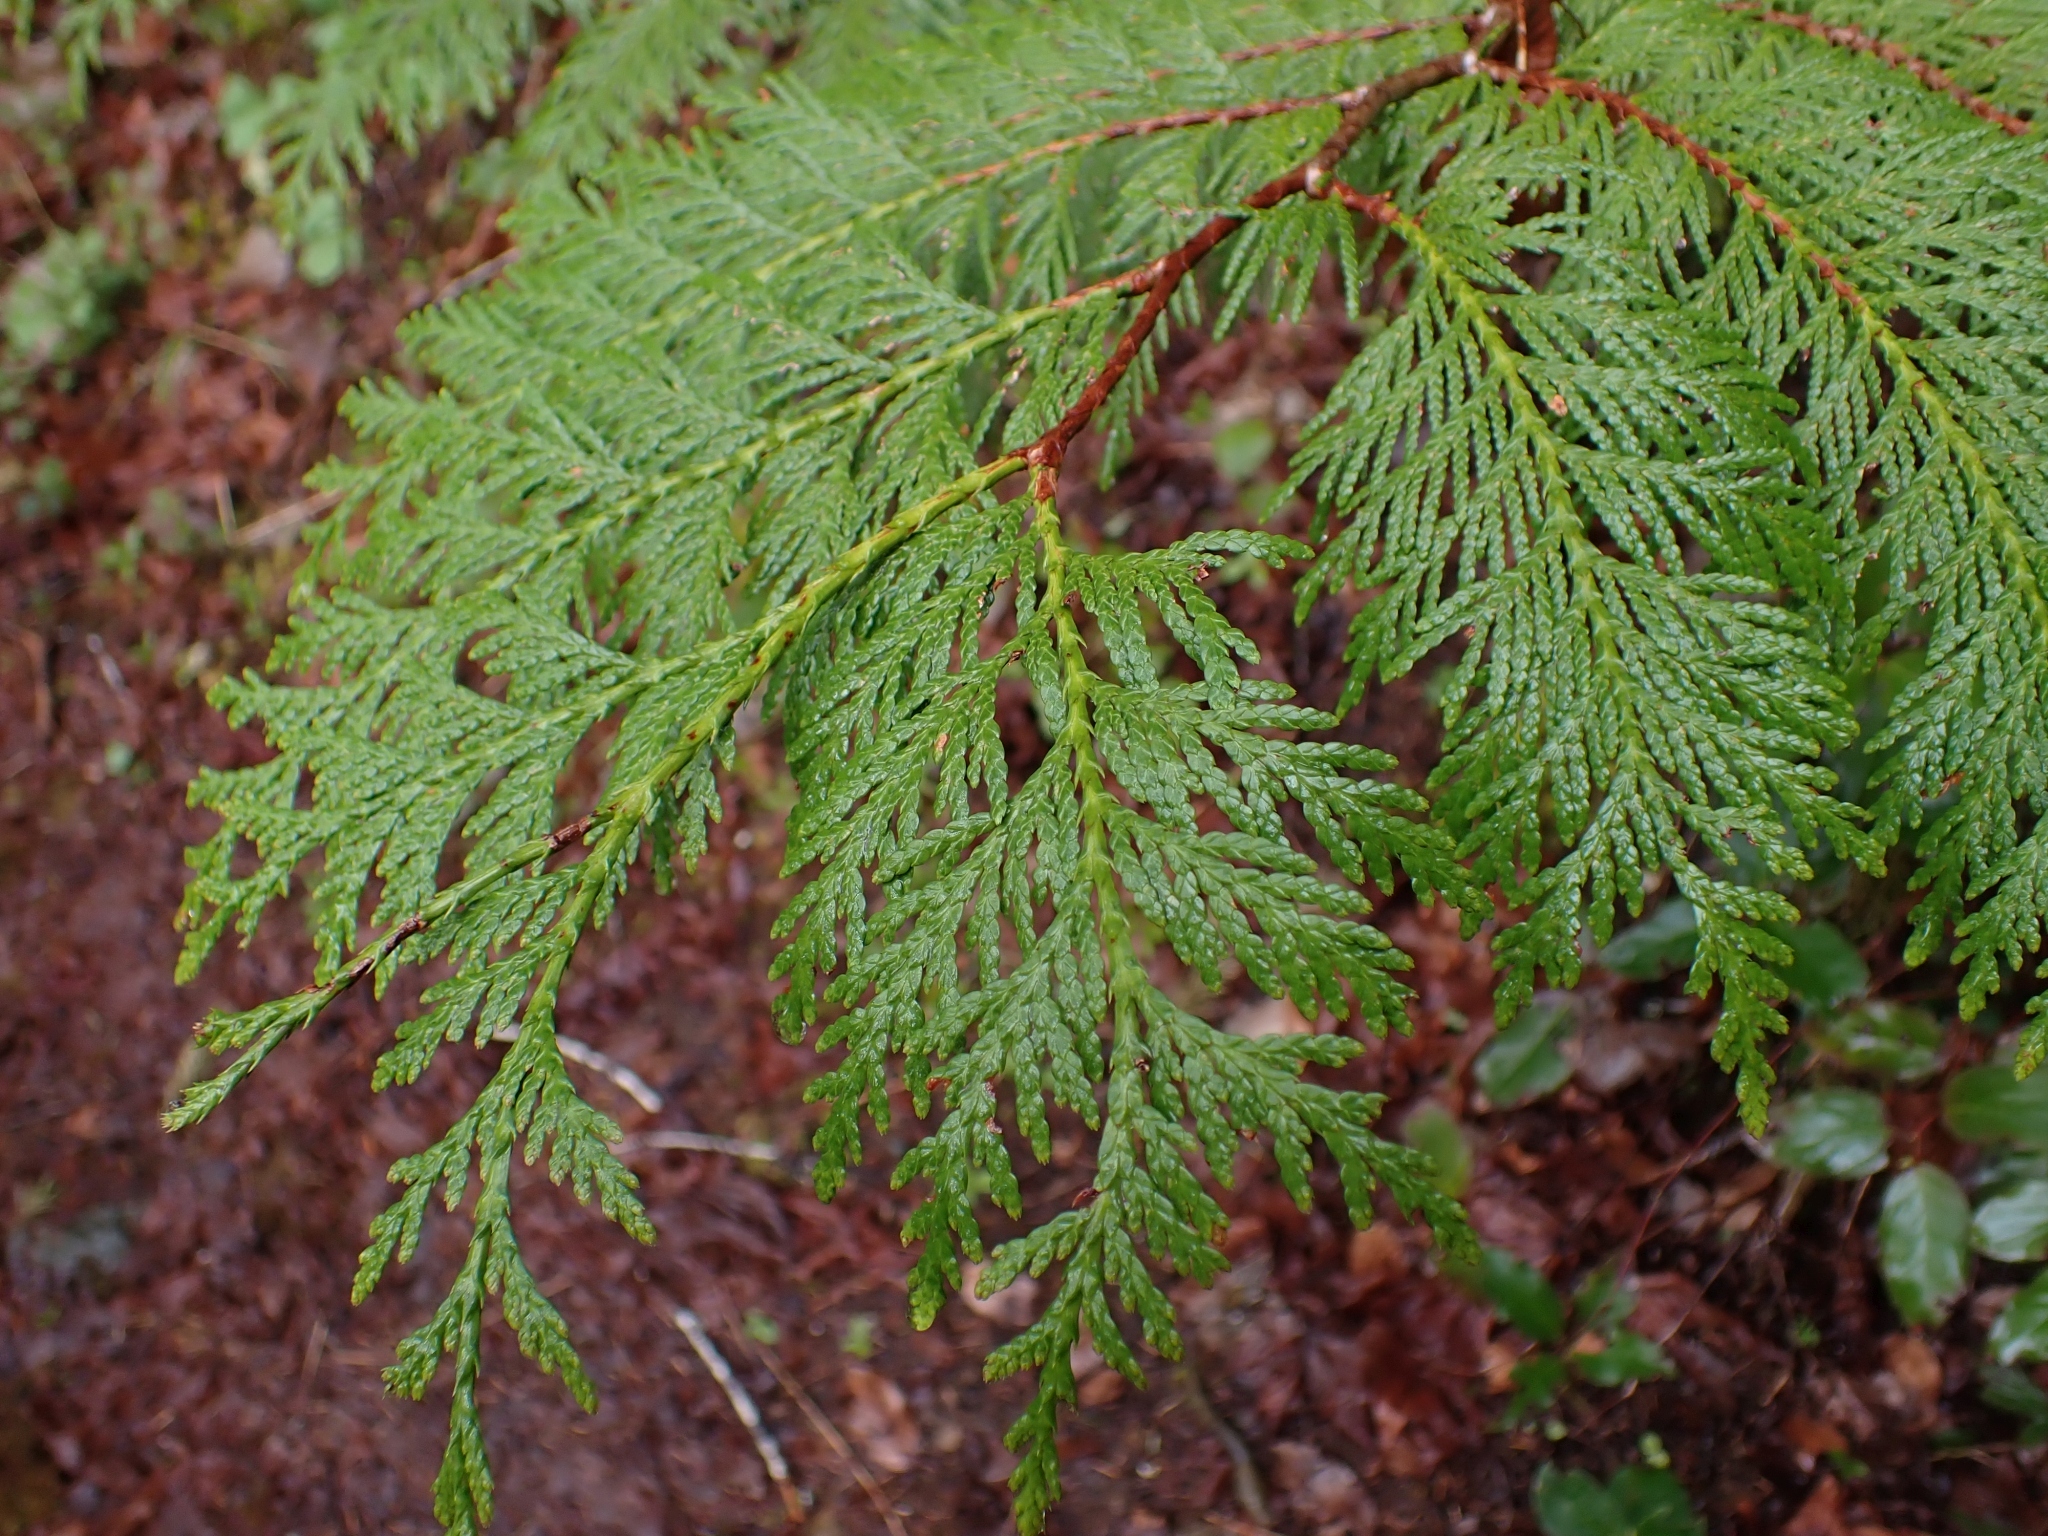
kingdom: Plantae
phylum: Tracheophyta
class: Pinopsida
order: Pinales
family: Cupressaceae
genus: Thuja
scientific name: Thuja plicata
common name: Western red-cedar
